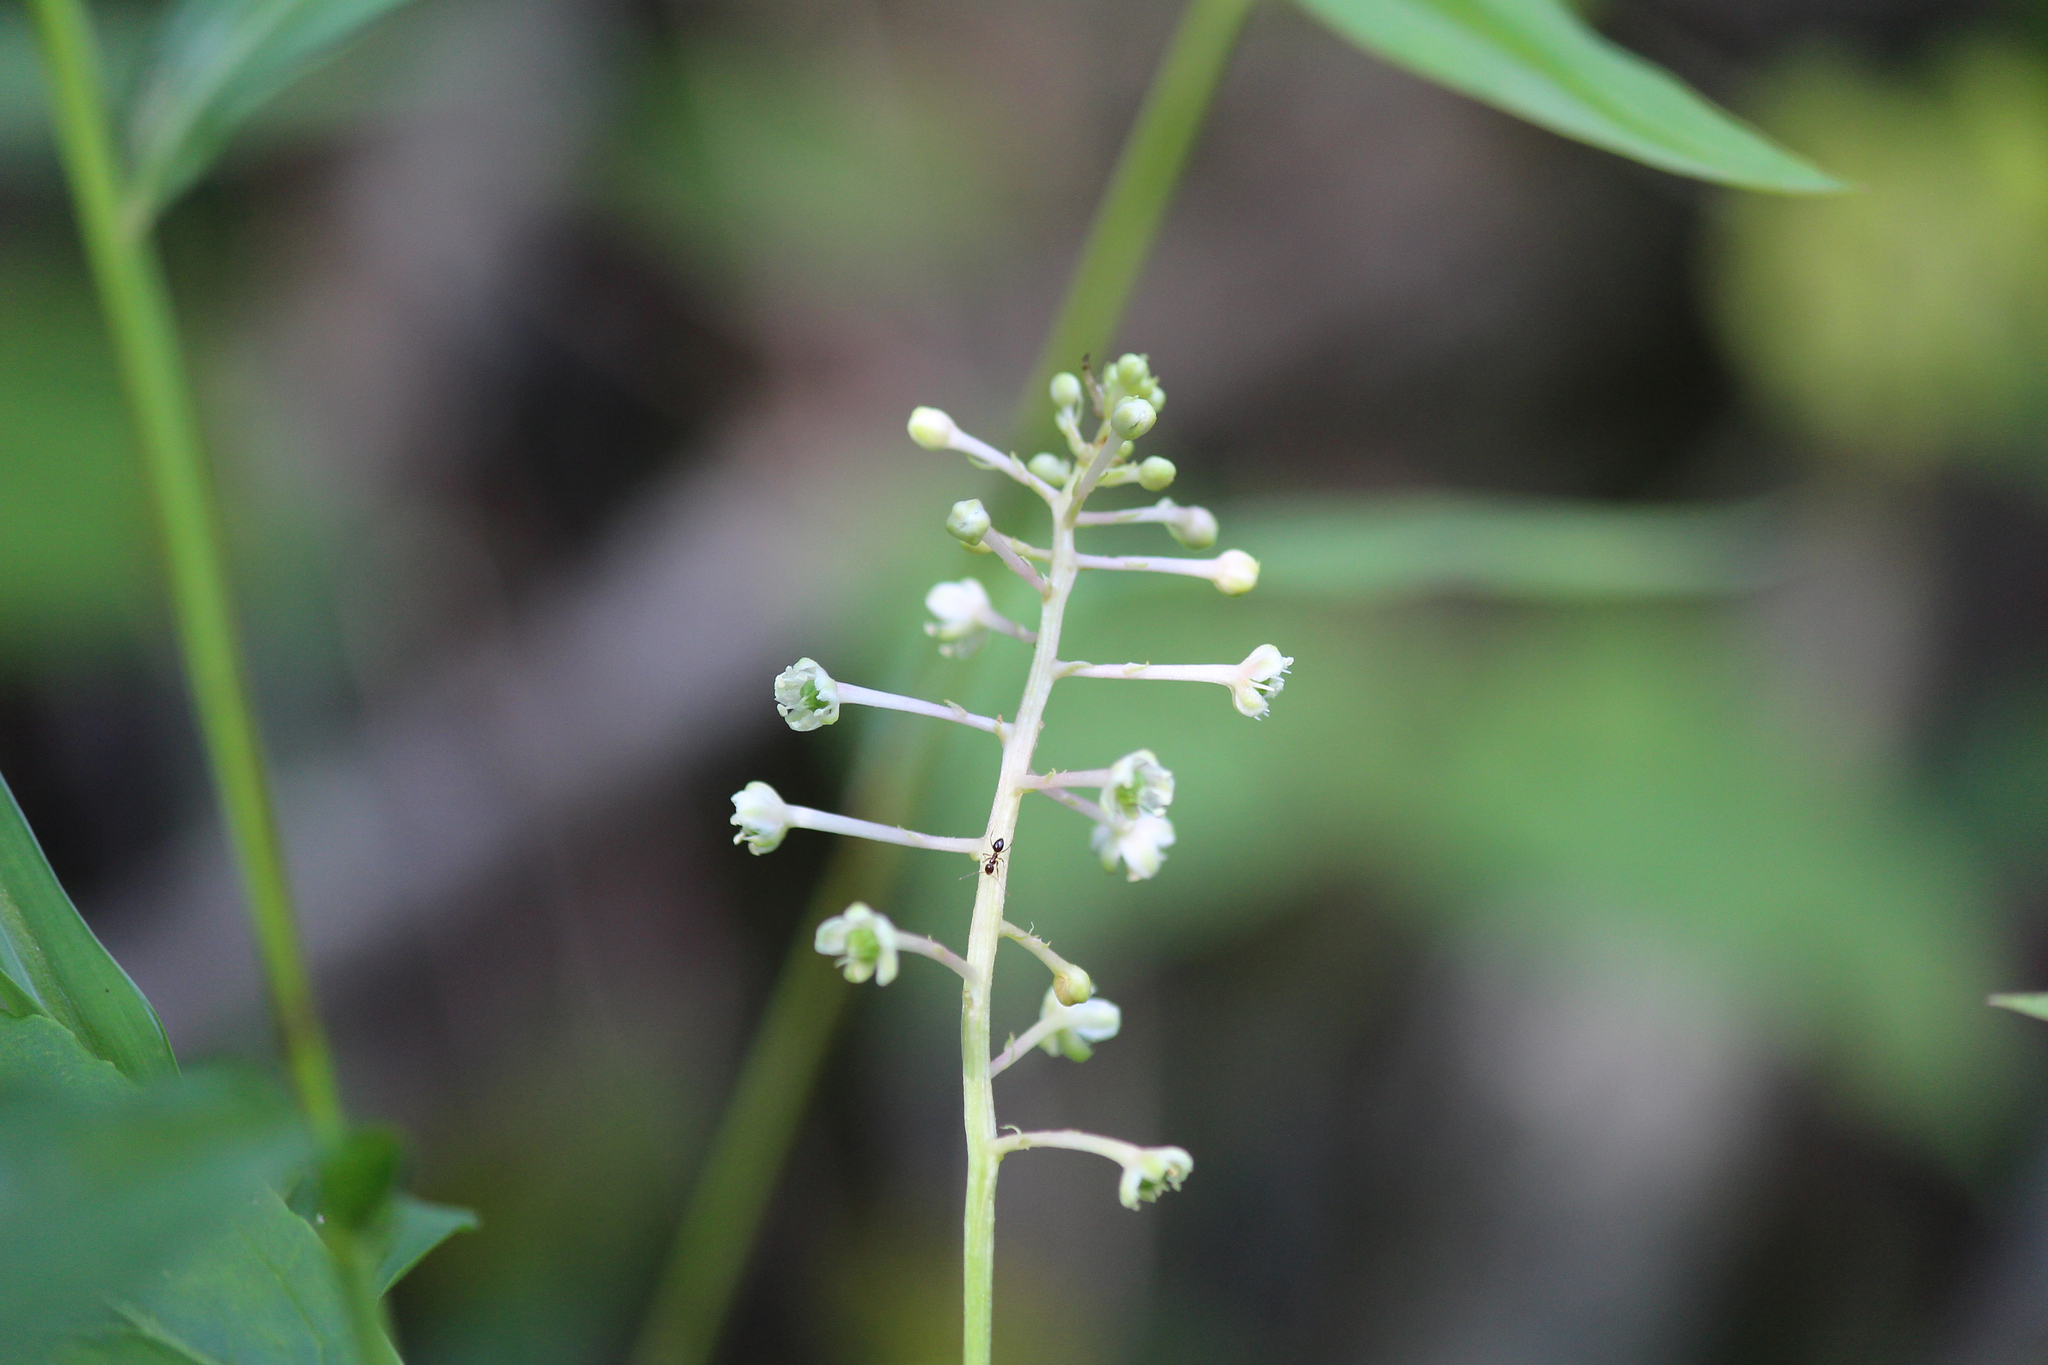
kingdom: Plantae
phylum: Tracheophyta
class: Magnoliopsida
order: Caryophyllales
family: Phytolaccaceae
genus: Phytolacca
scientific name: Phytolacca americana
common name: American pokeweed
